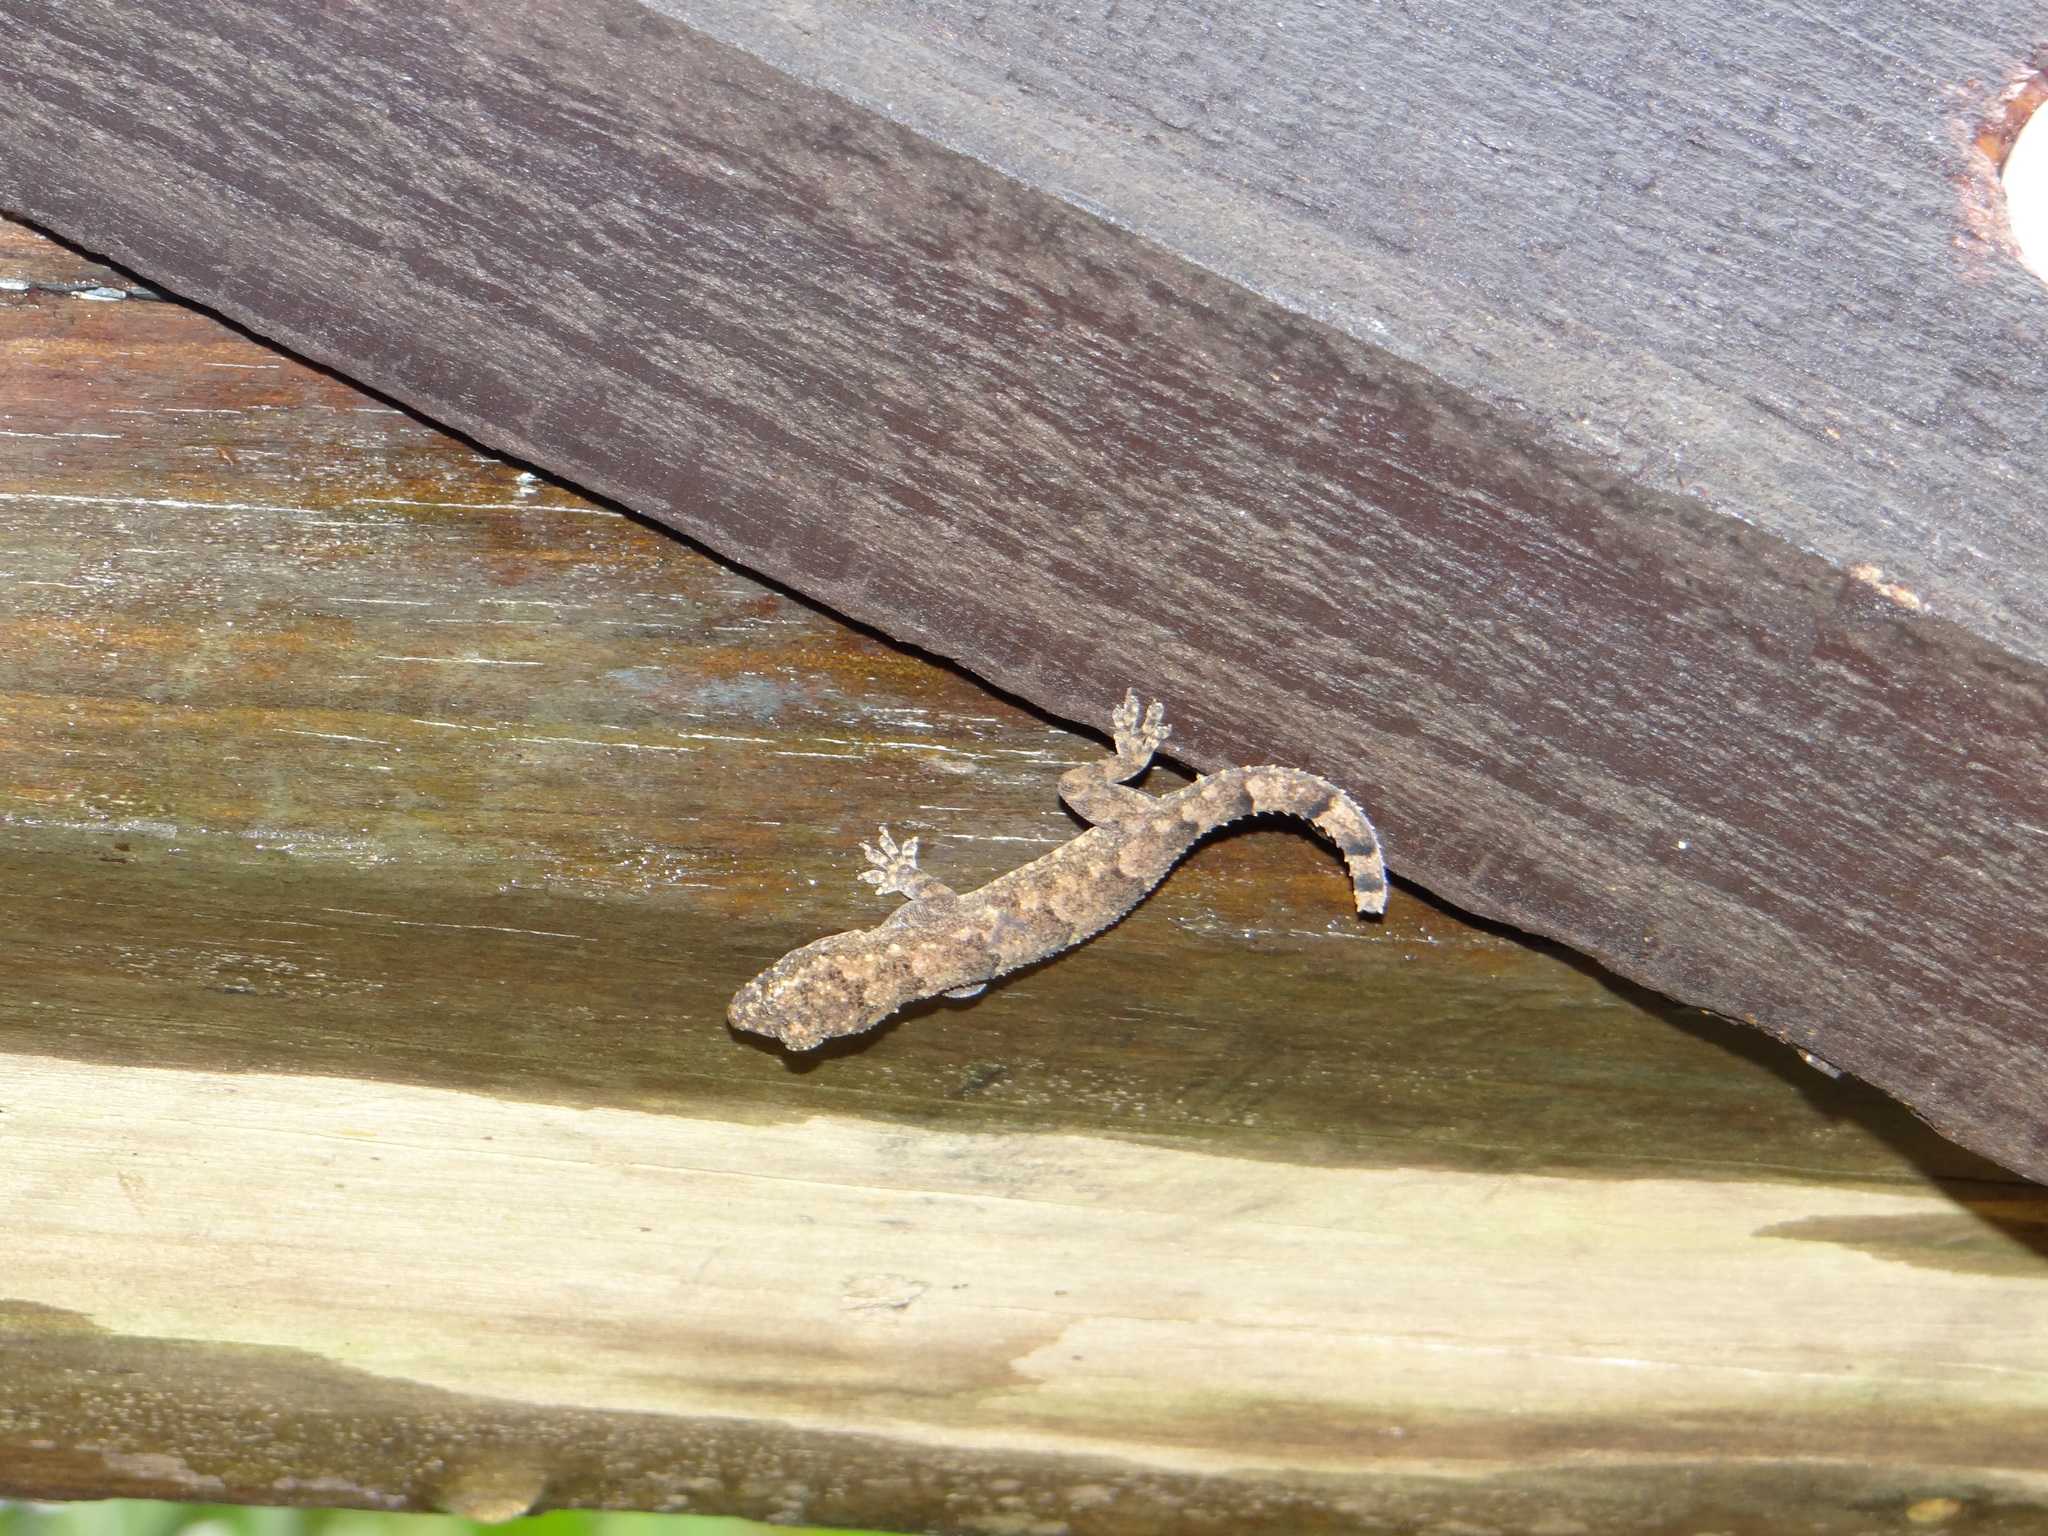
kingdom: Animalia
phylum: Chordata
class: Squamata
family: Gekkonidae
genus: Hemidactylus
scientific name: Hemidactylus mabouia
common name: House gecko
